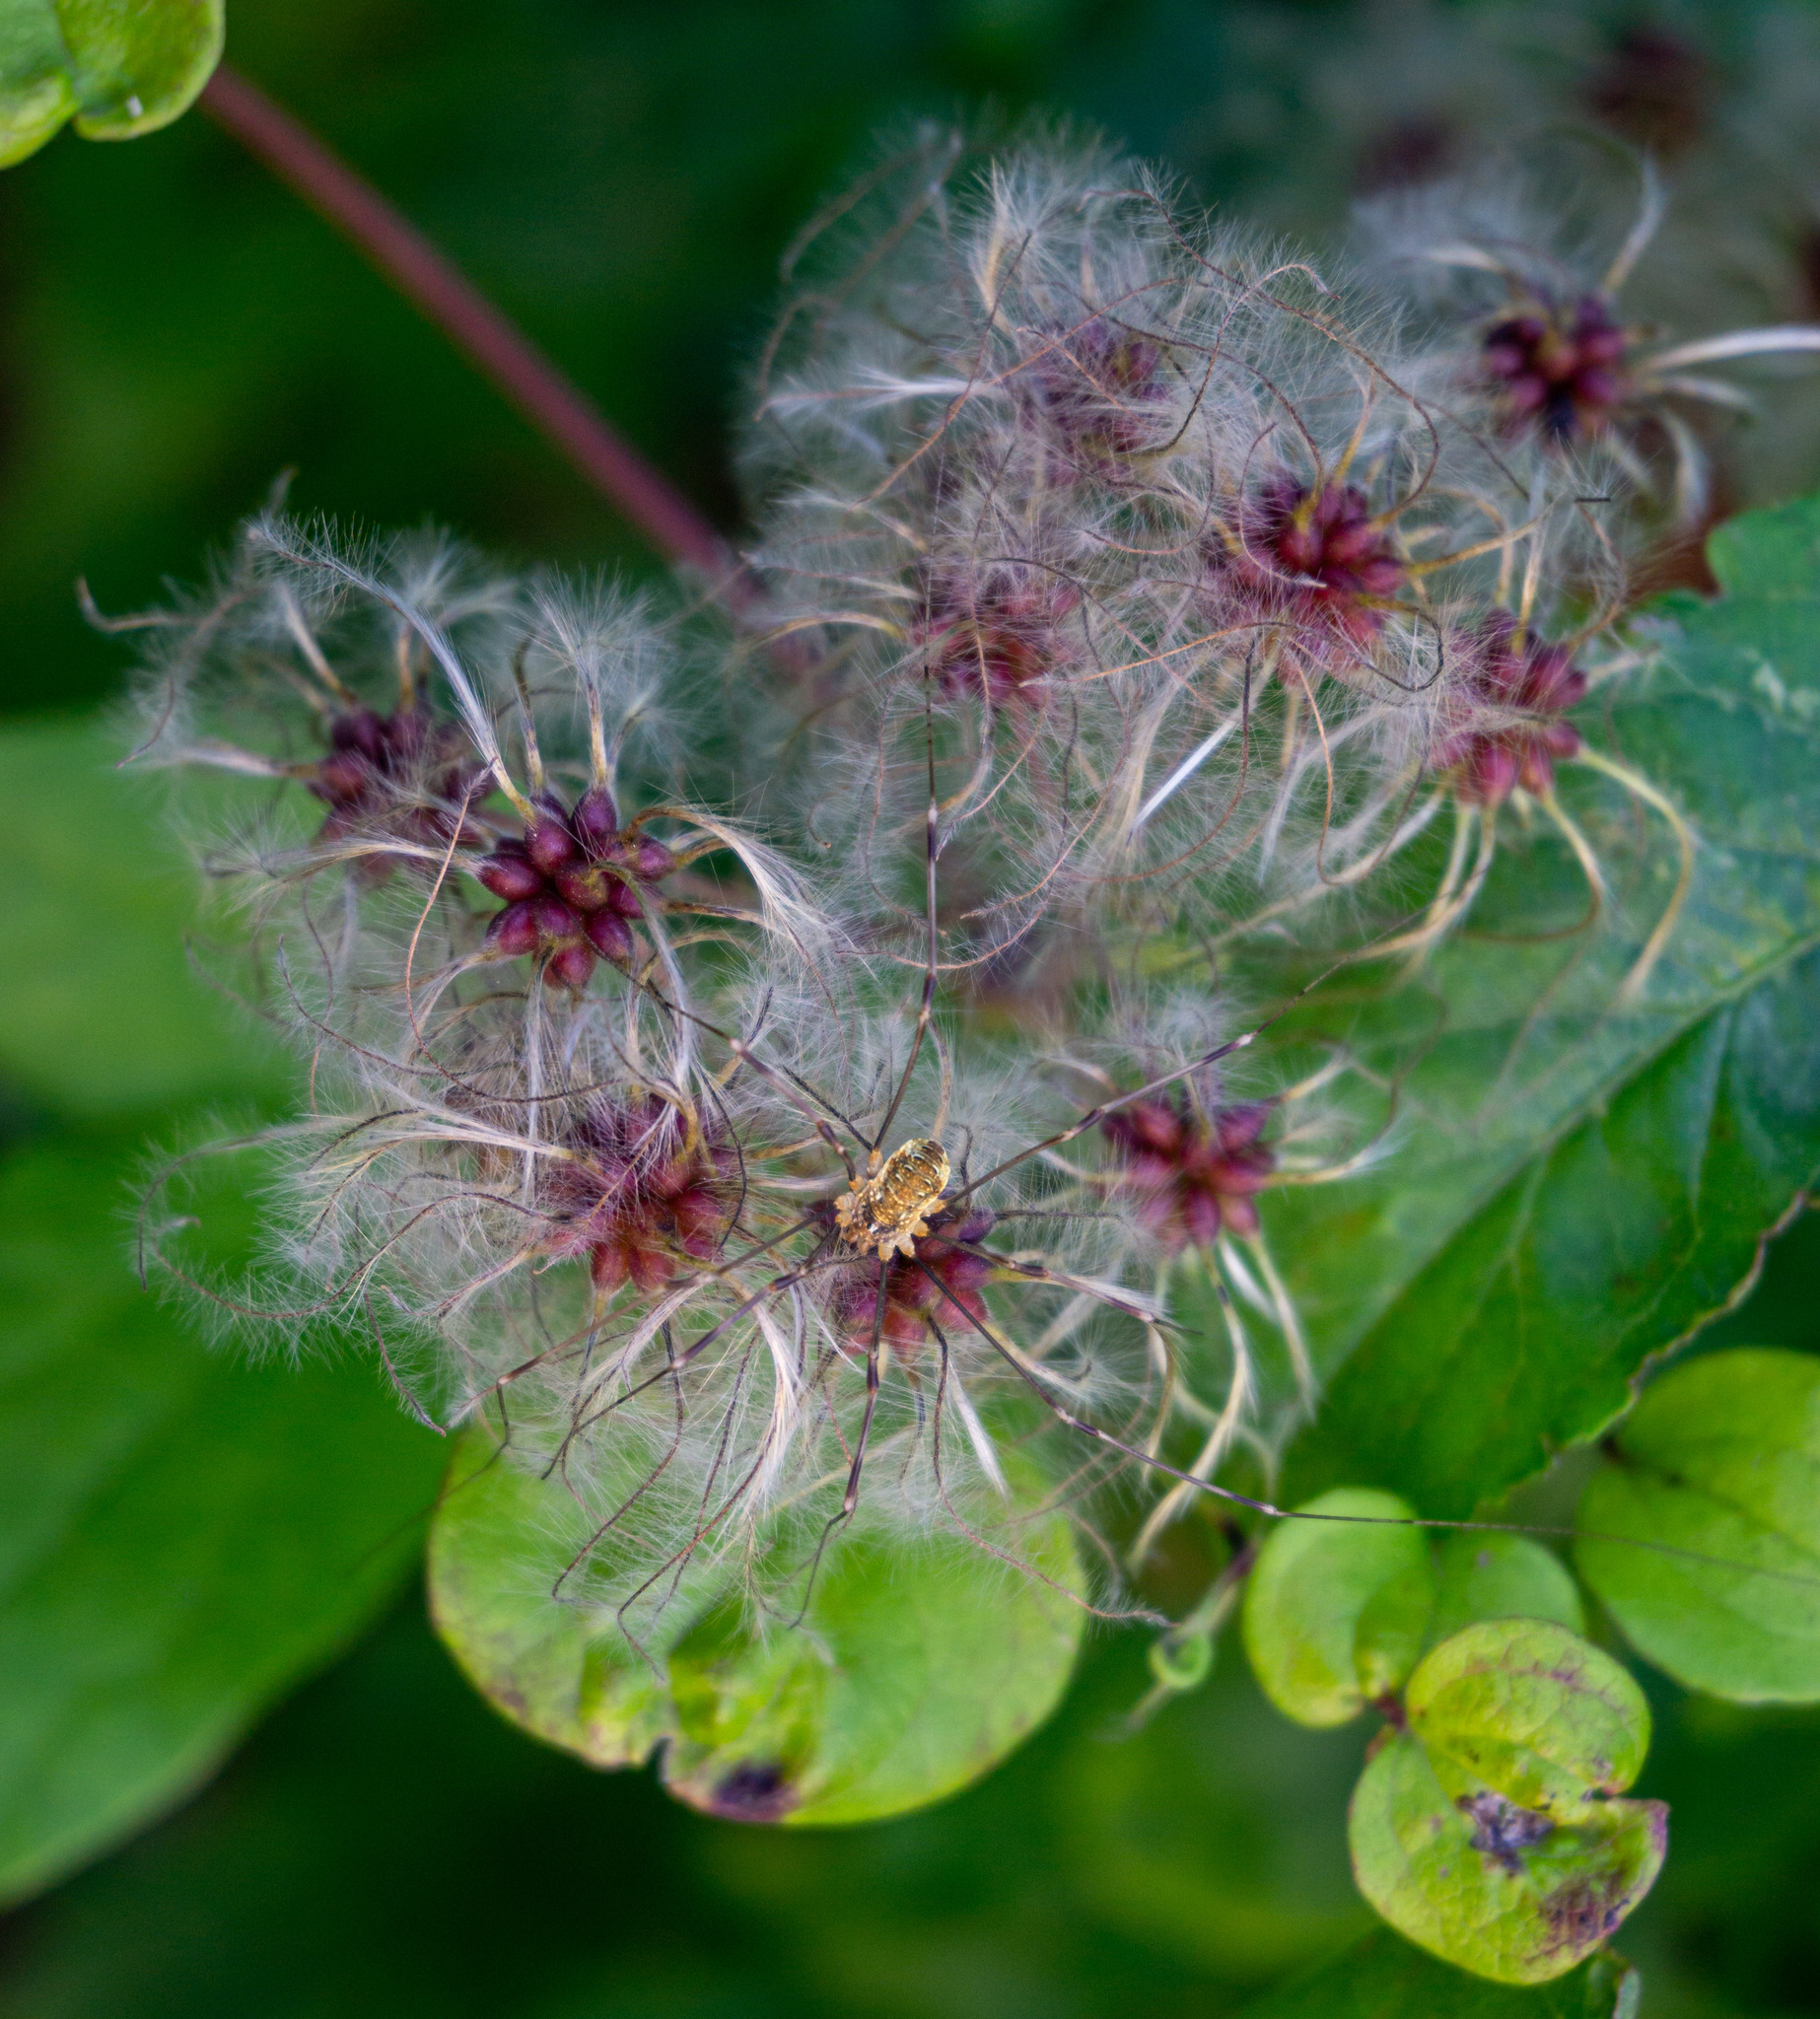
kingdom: Plantae
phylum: Tracheophyta
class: Magnoliopsida
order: Ranunculales
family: Ranunculaceae
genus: Clematis
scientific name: Clematis vitalba
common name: Evergreen clematis
